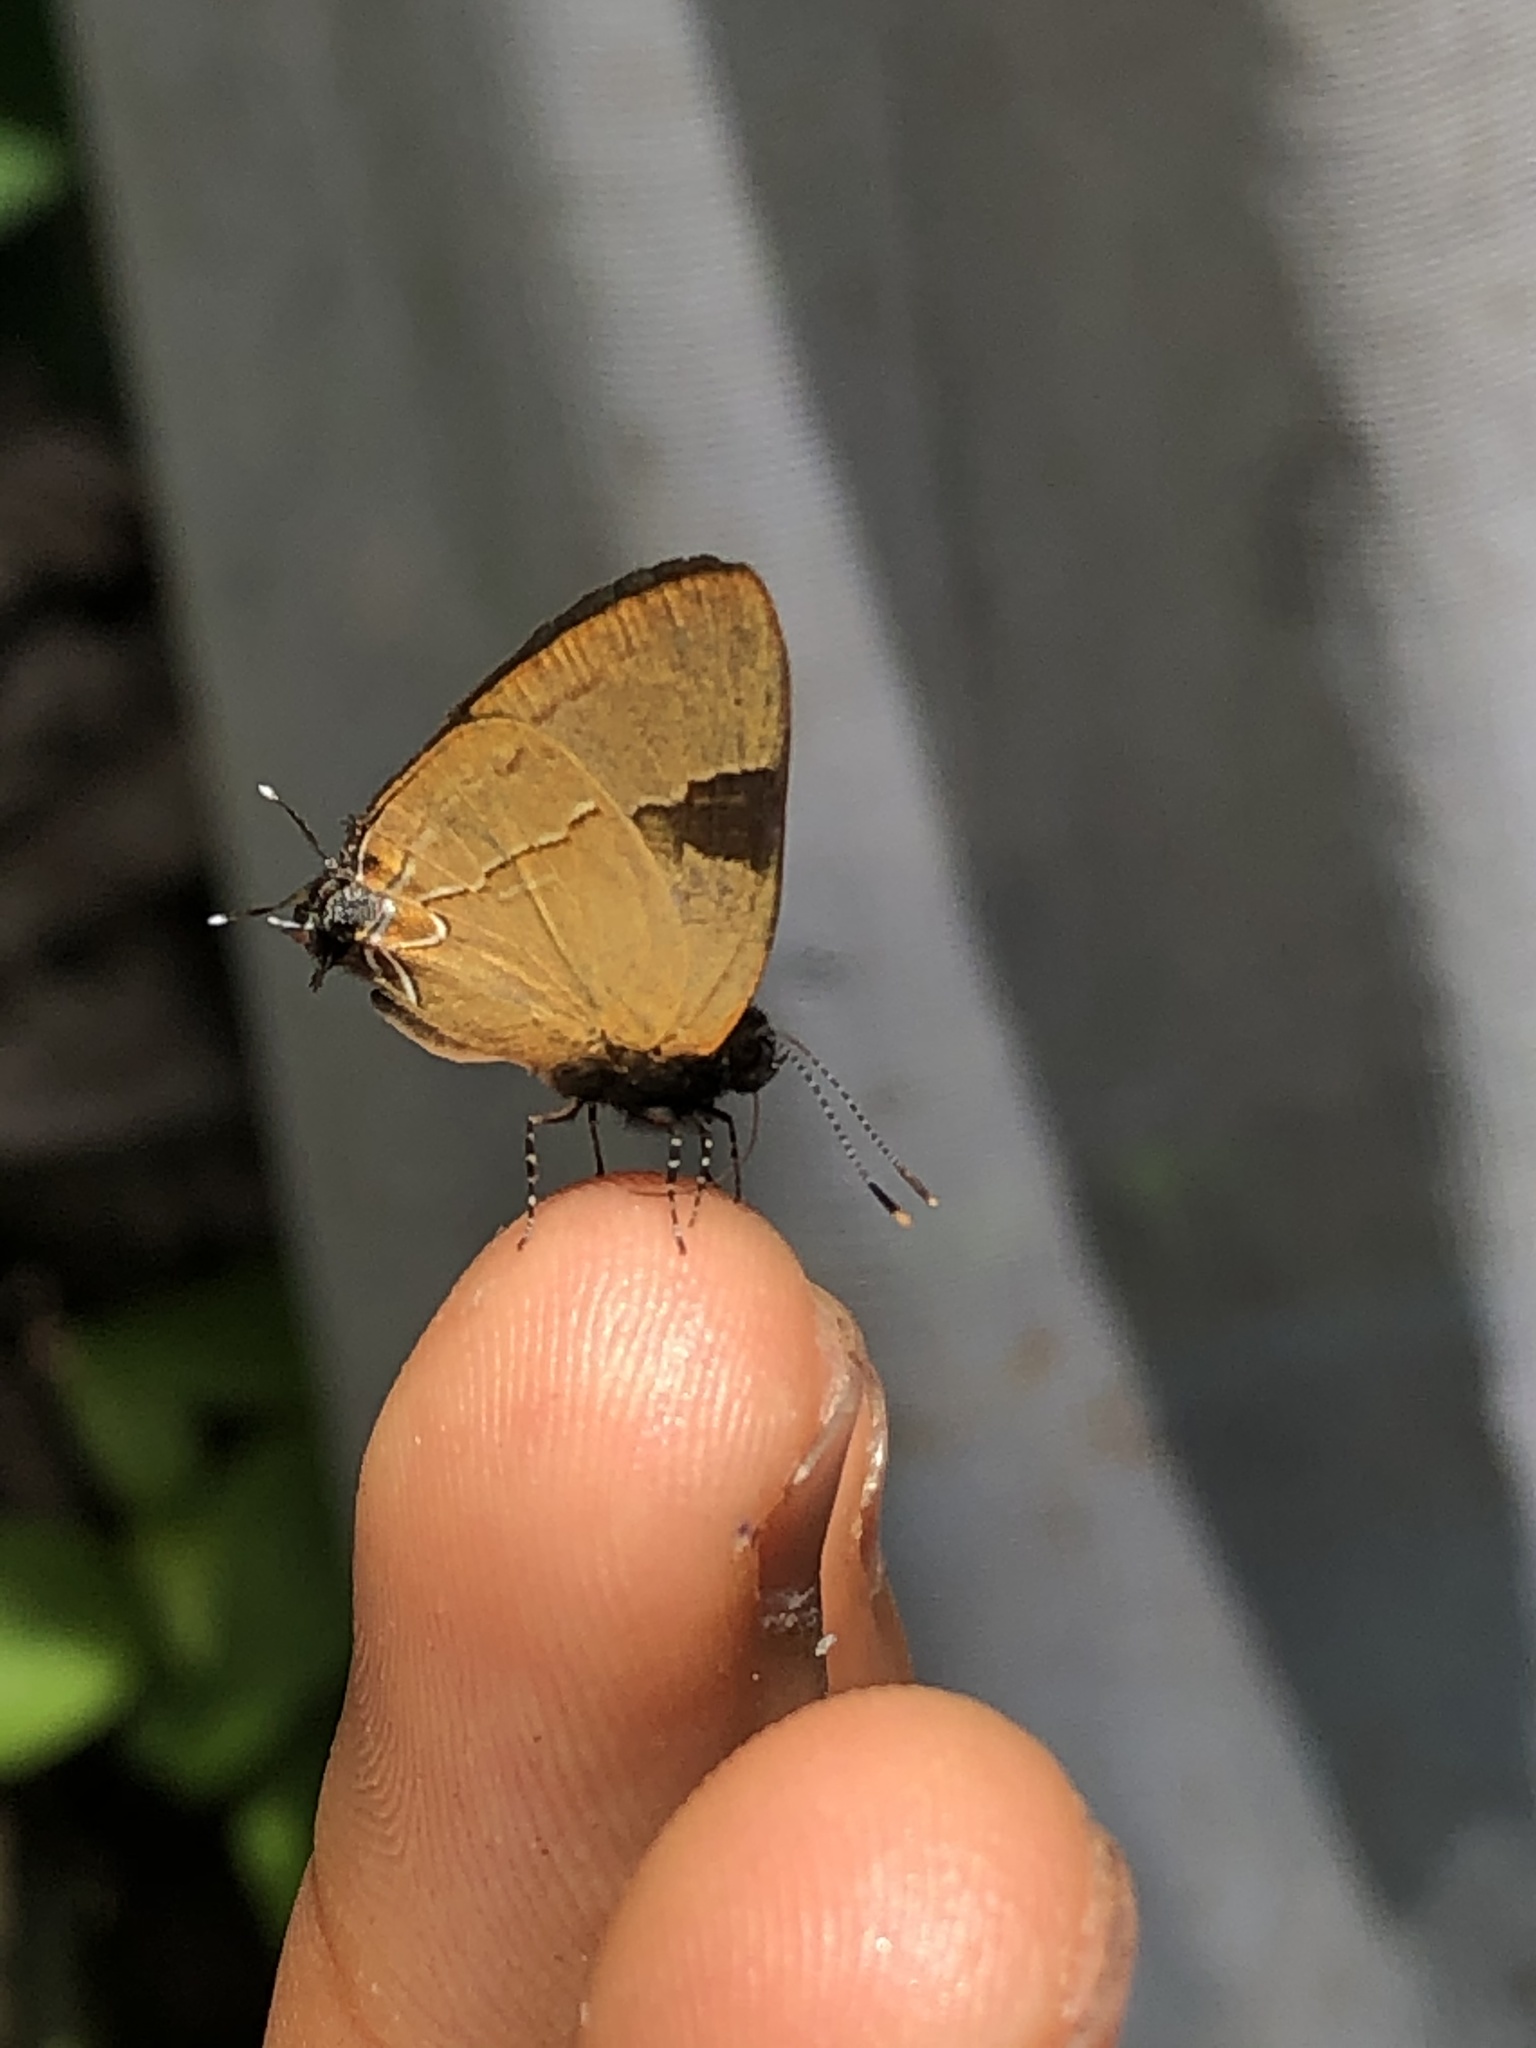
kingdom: Animalia
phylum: Arthropoda
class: Insecta
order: Lepidoptera
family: Lycaenidae
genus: Calycopis
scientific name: Calycopis calus
